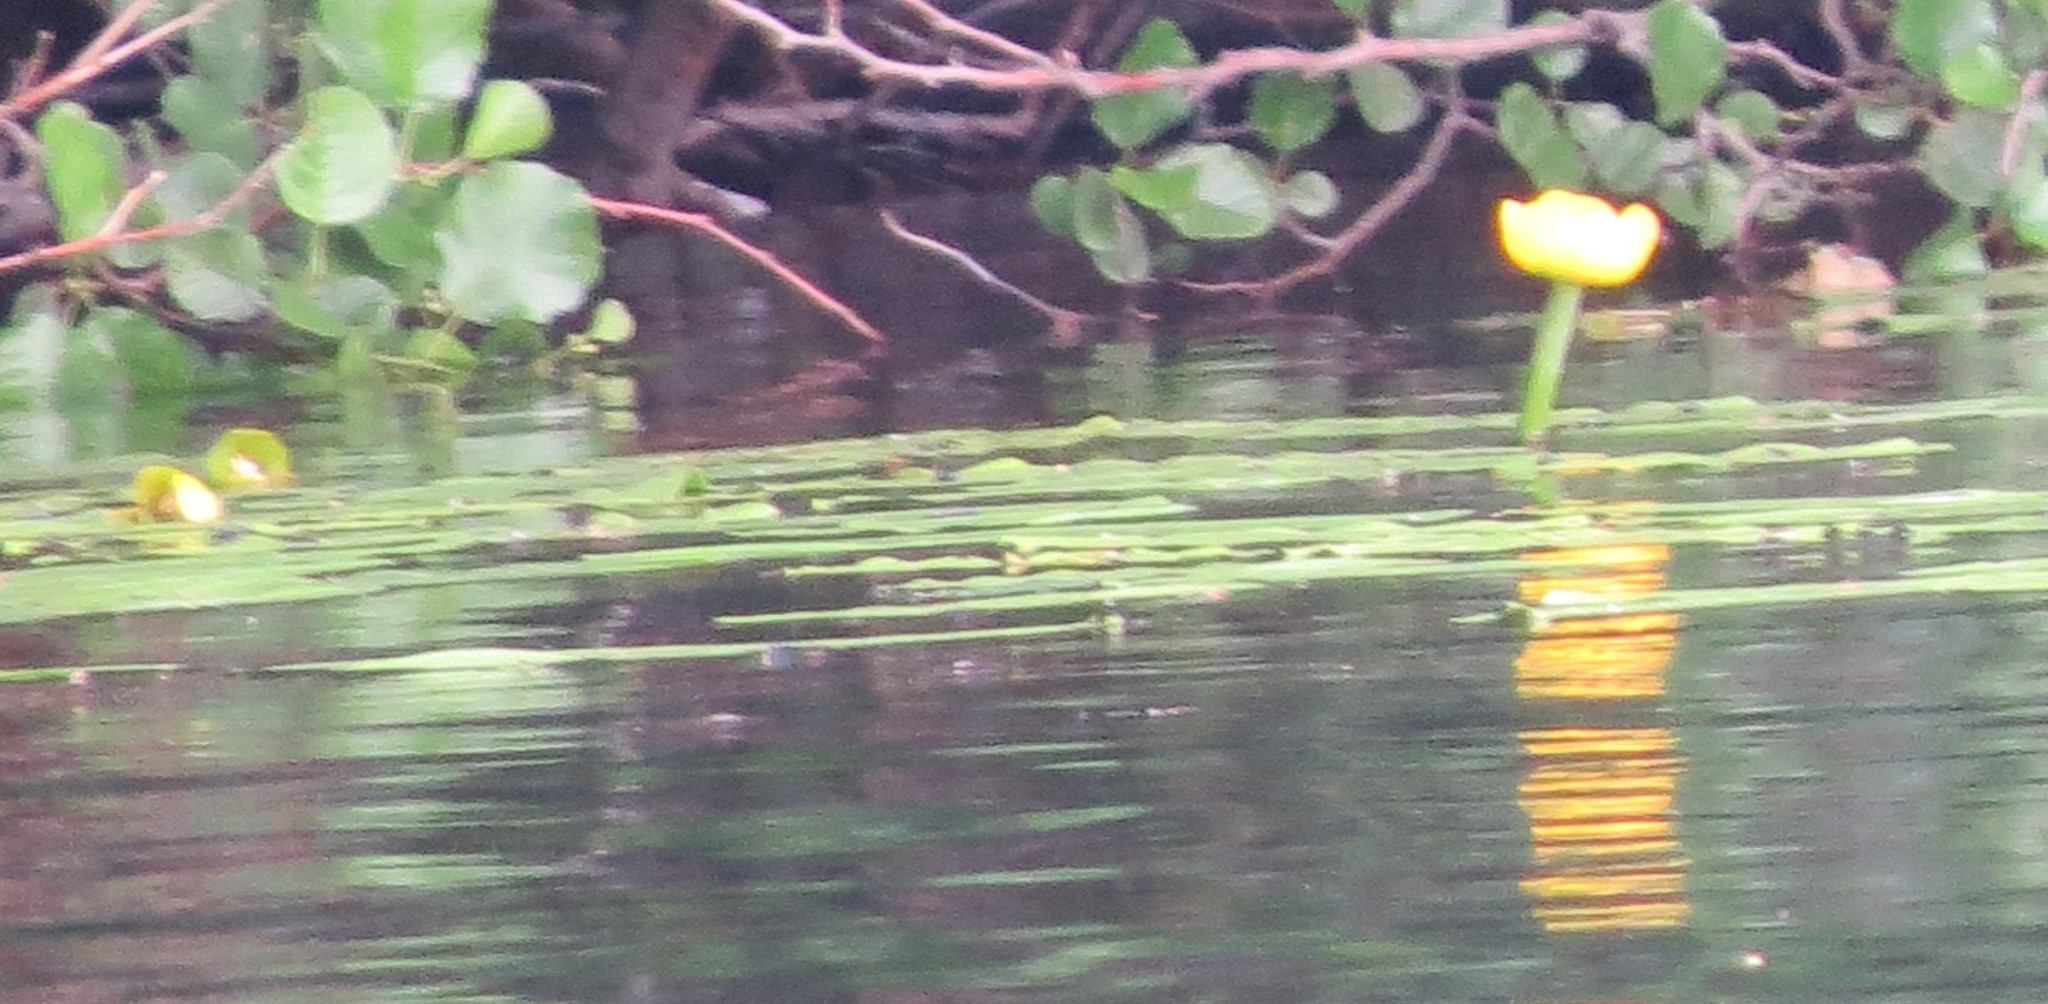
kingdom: Plantae
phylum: Tracheophyta
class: Magnoliopsida
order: Nymphaeales
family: Nymphaeaceae
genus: Nuphar
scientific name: Nuphar lutea
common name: Yellow water-lily
